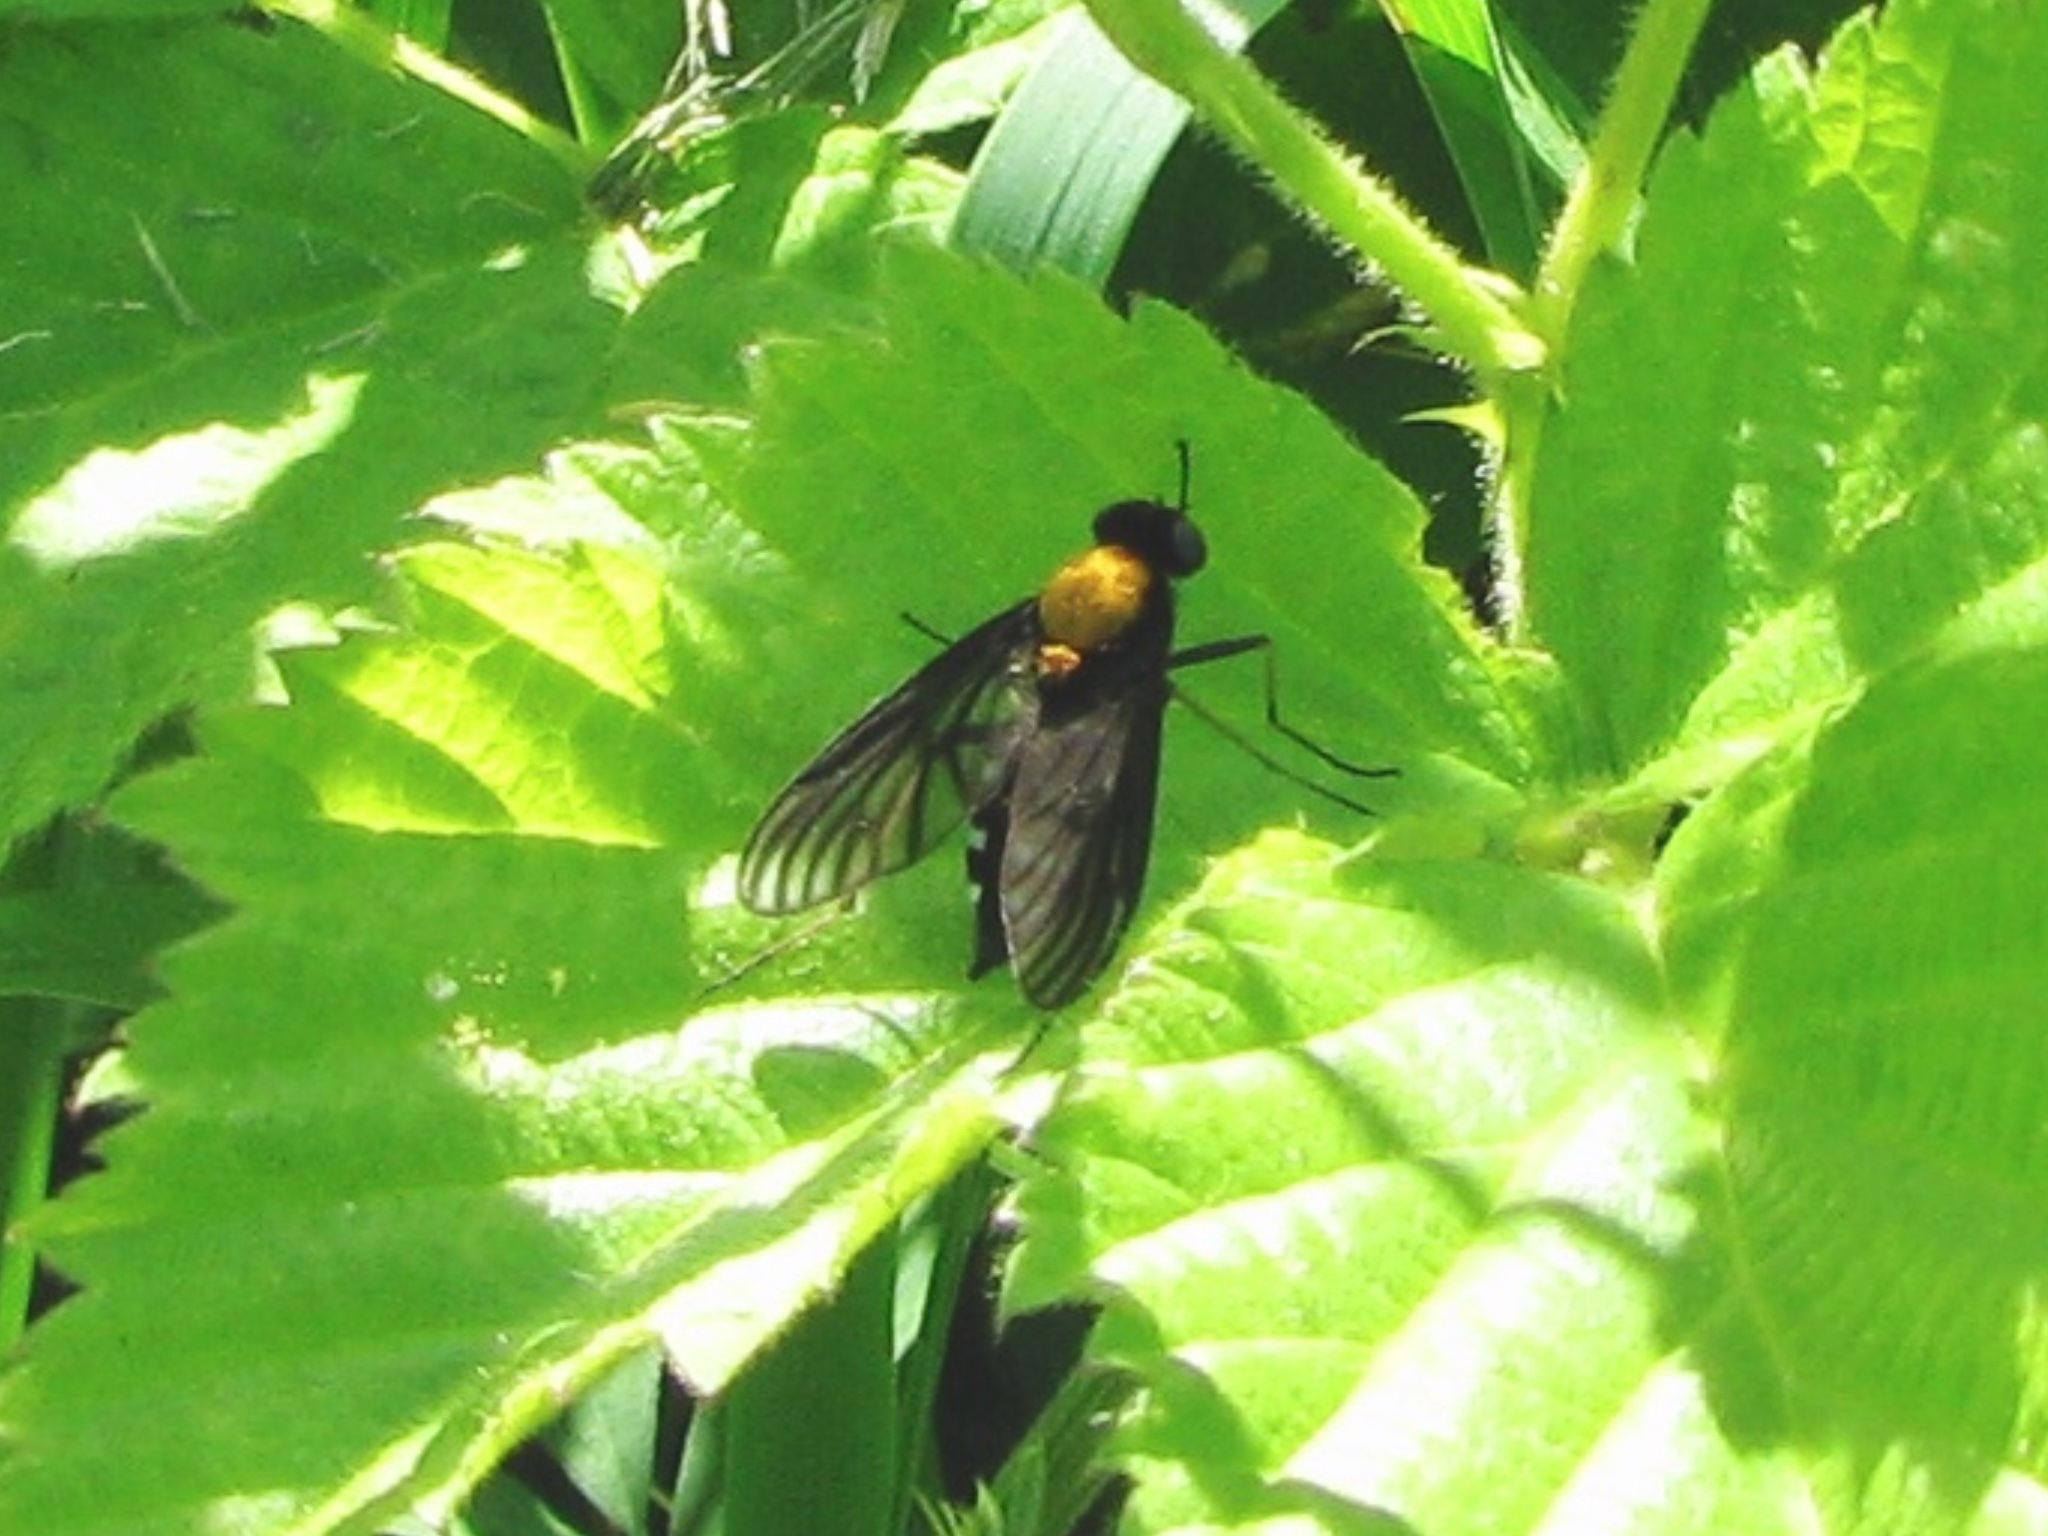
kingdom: Animalia
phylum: Arthropoda
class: Insecta
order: Diptera
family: Rhagionidae
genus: Chrysopilus
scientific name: Chrysopilus thoracicus
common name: Golden-backed snipe fly
